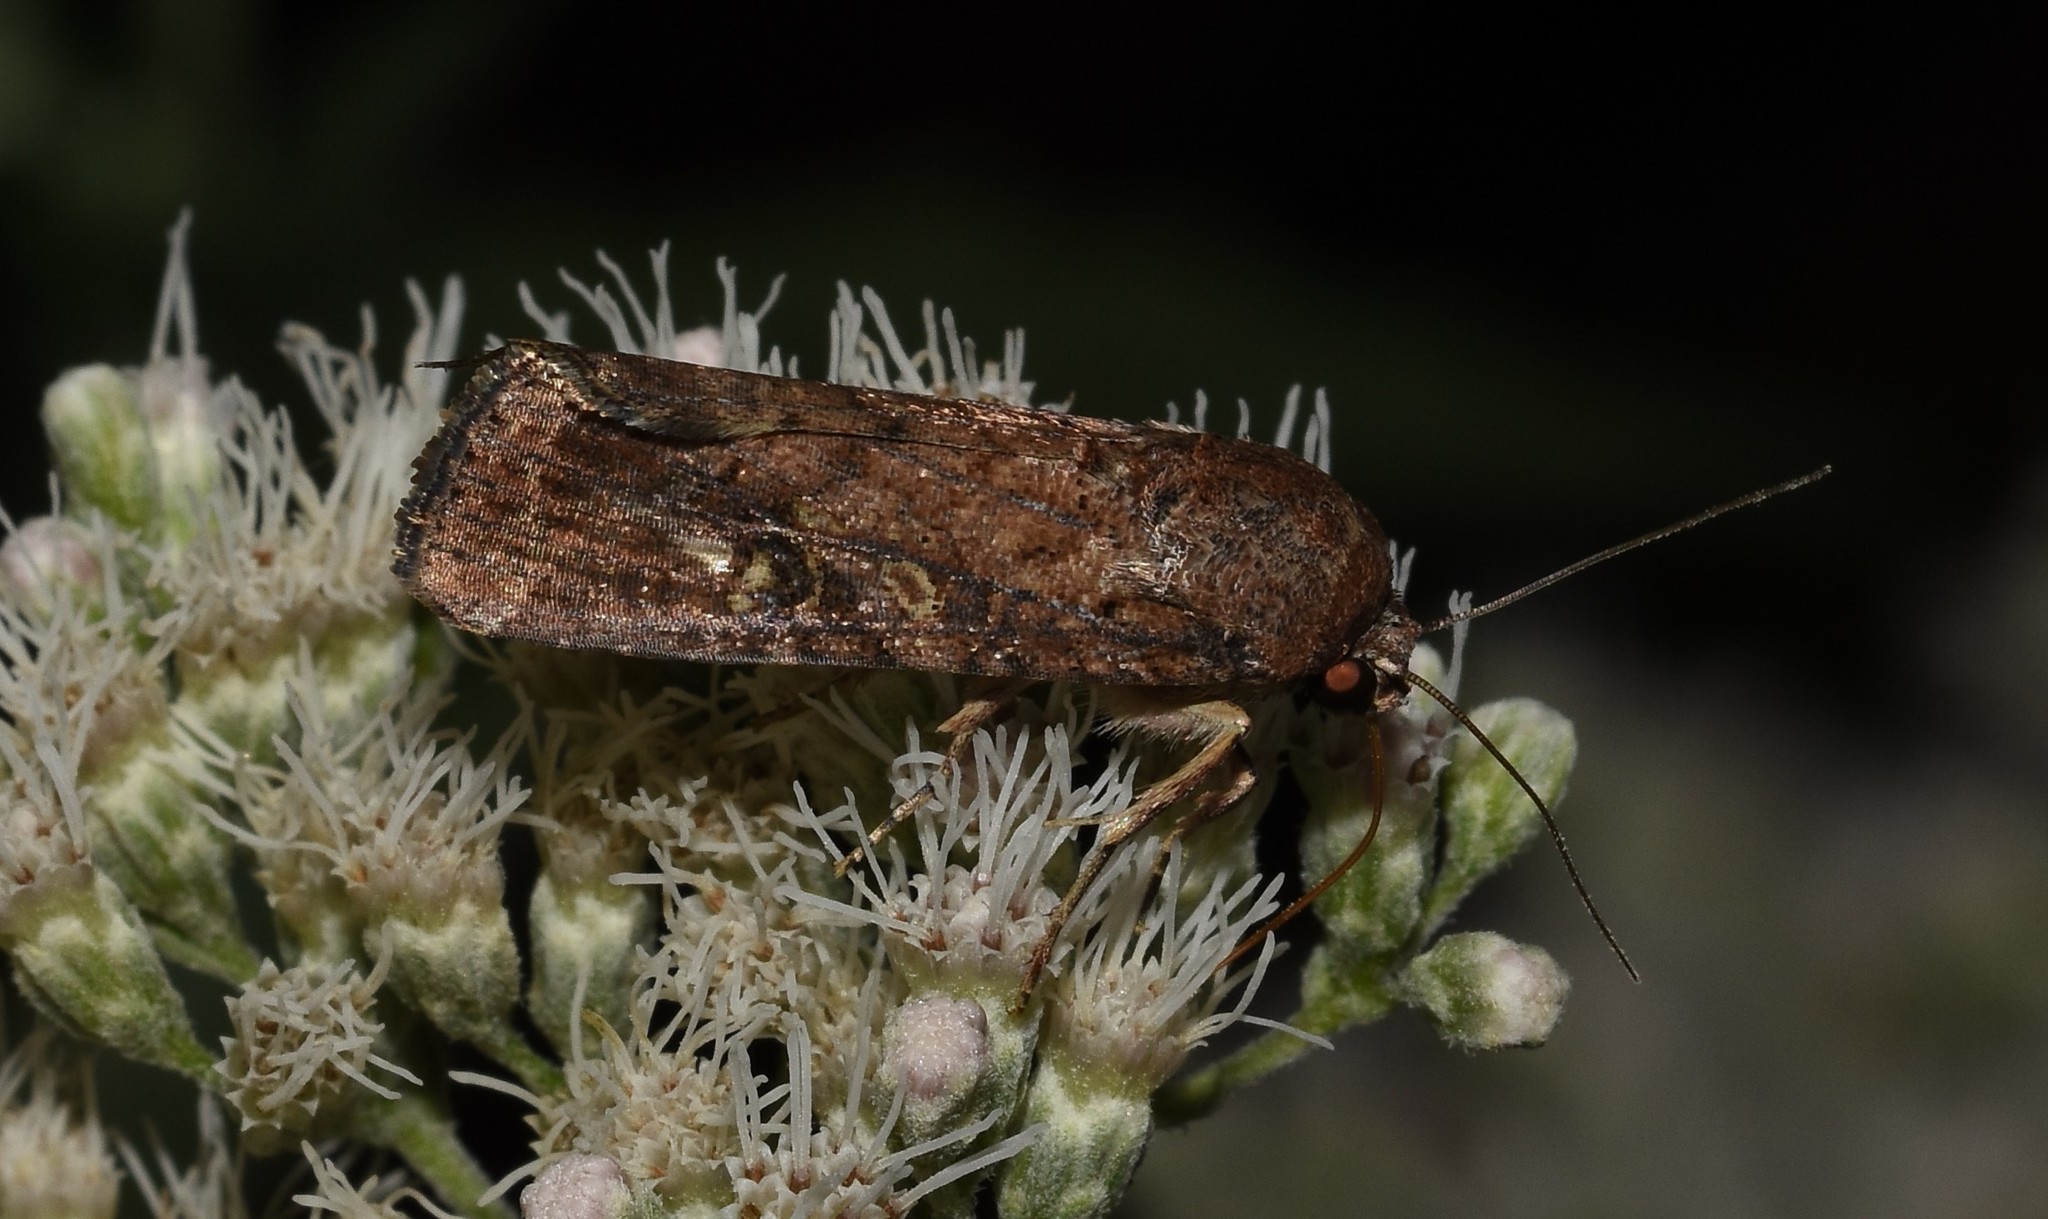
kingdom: Animalia
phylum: Arthropoda
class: Insecta
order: Lepidoptera
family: Noctuidae
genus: Mythimna
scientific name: Mythimna unipuncta
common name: White-speck
